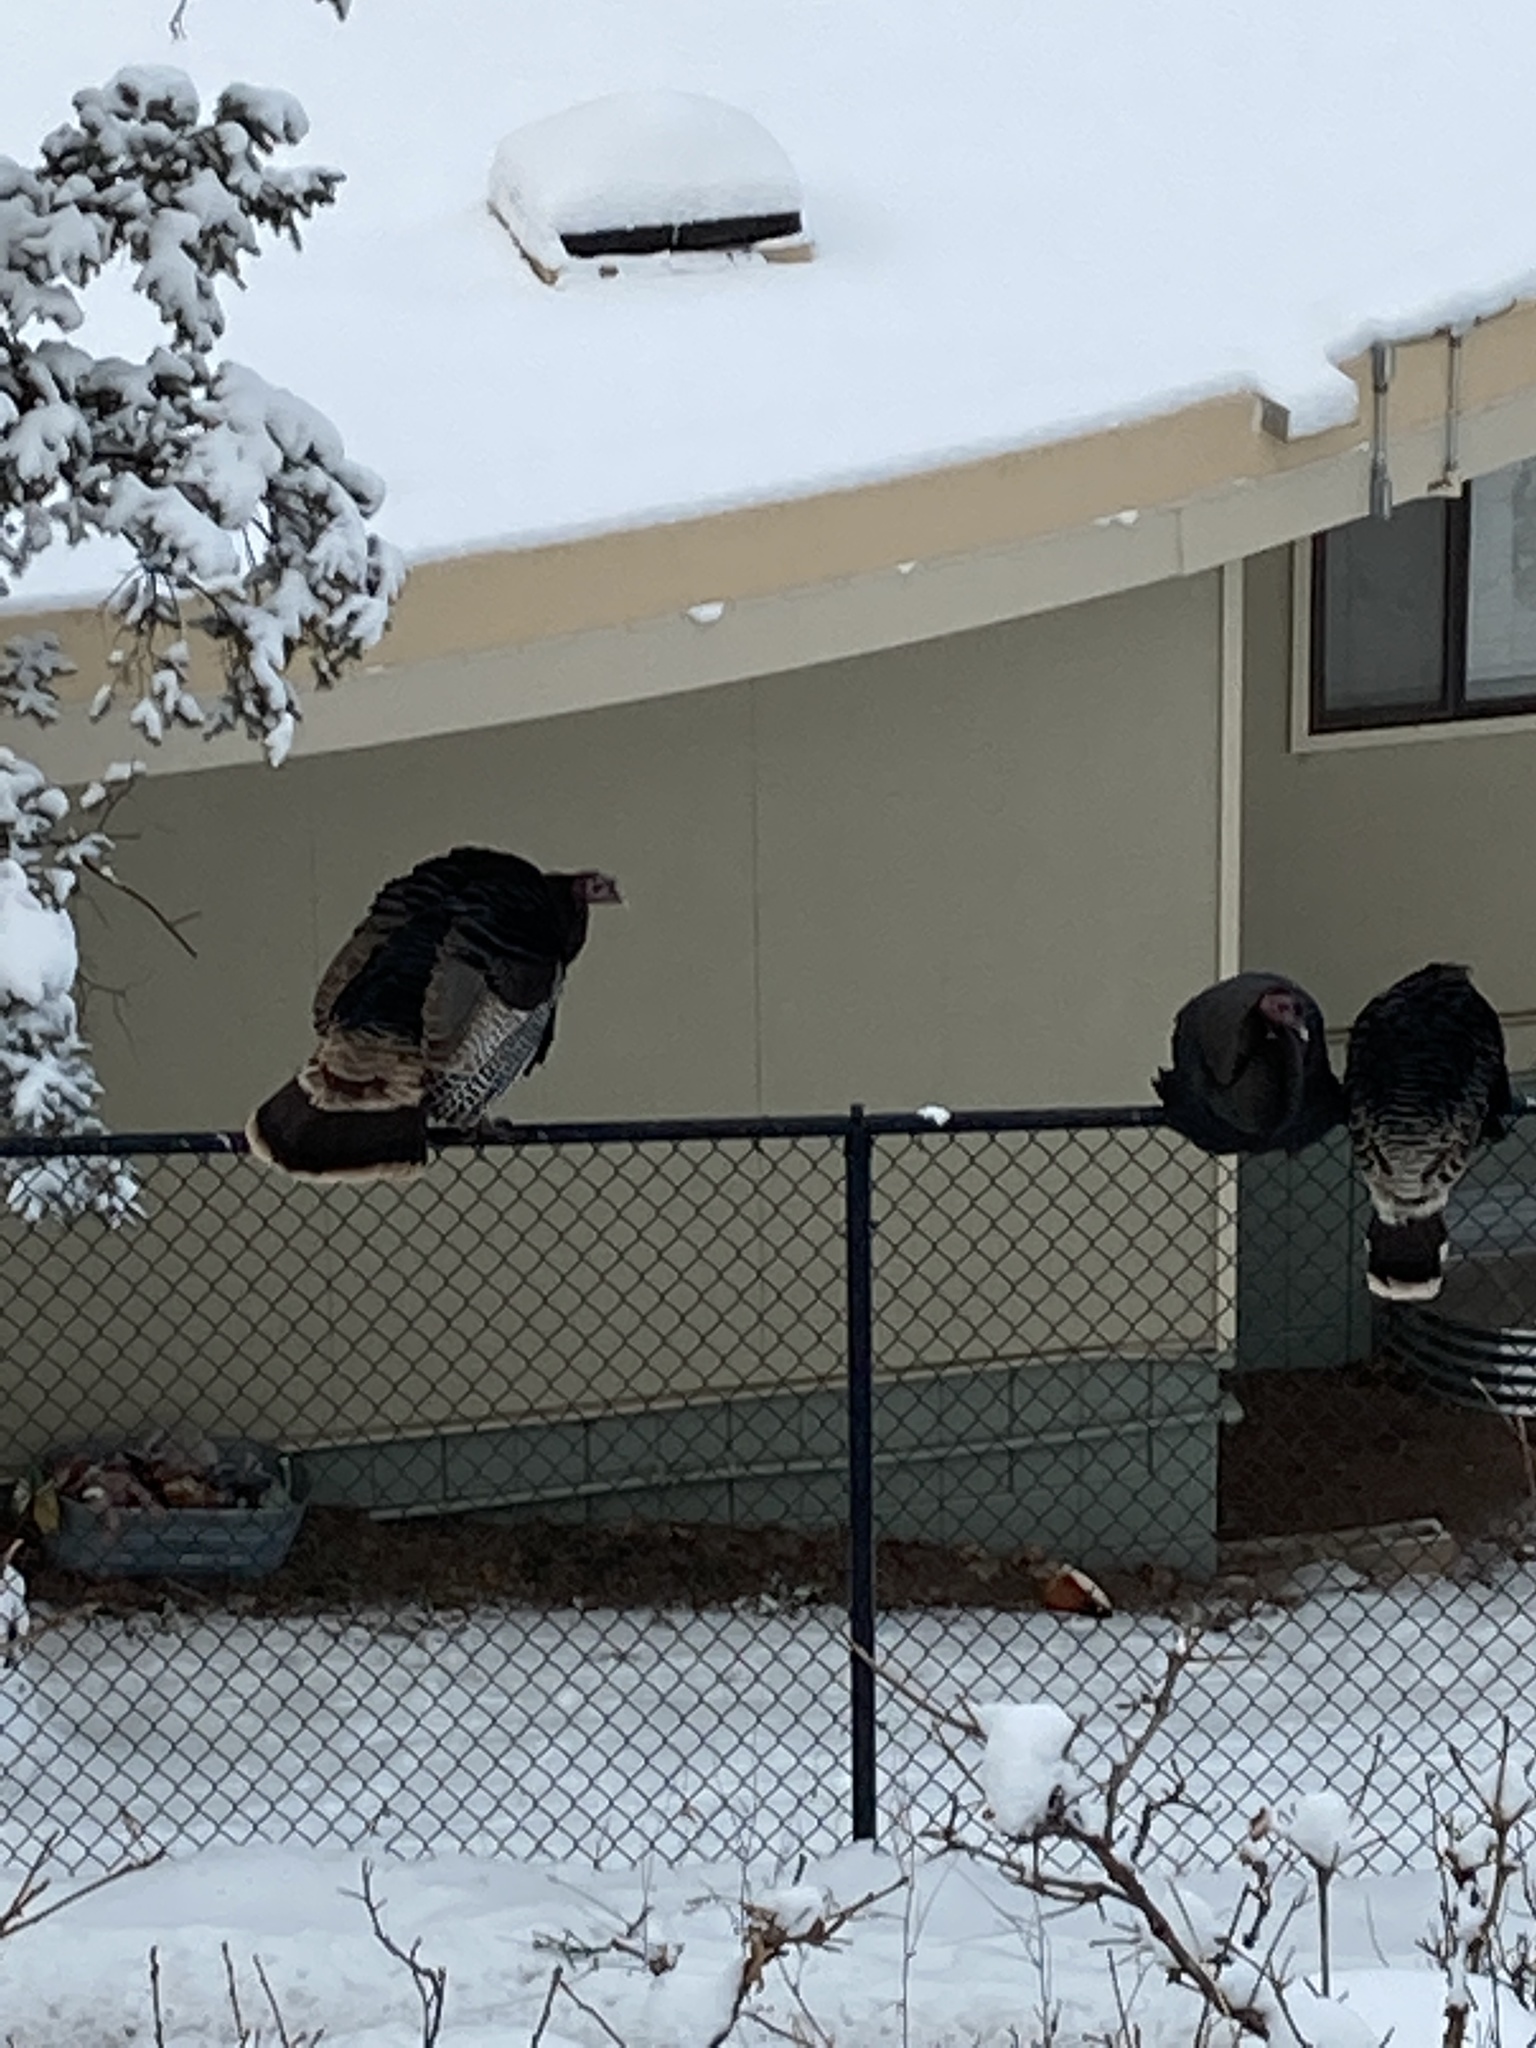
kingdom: Animalia
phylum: Chordata
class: Aves
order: Galliformes
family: Phasianidae
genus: Meleagris
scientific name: Meleagris gallopavo
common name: Wild turkey
